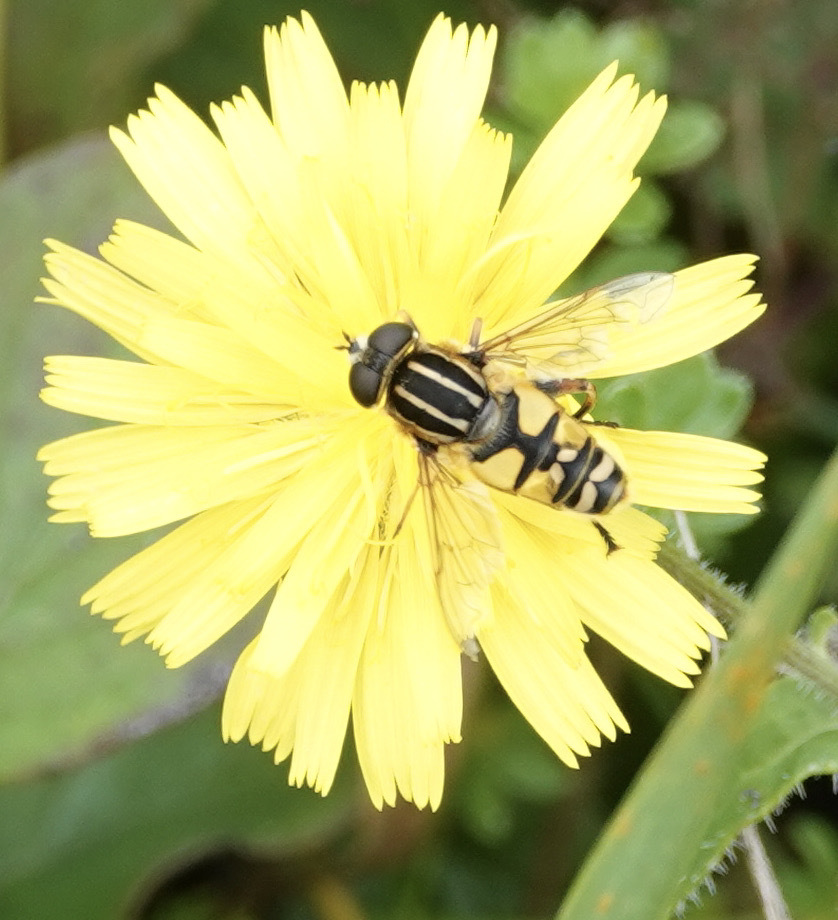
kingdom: Animalia
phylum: Arthropoda
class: Insecta
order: Diptera
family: Syrphidae
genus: Helophilus
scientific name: Helophilus pendulus
